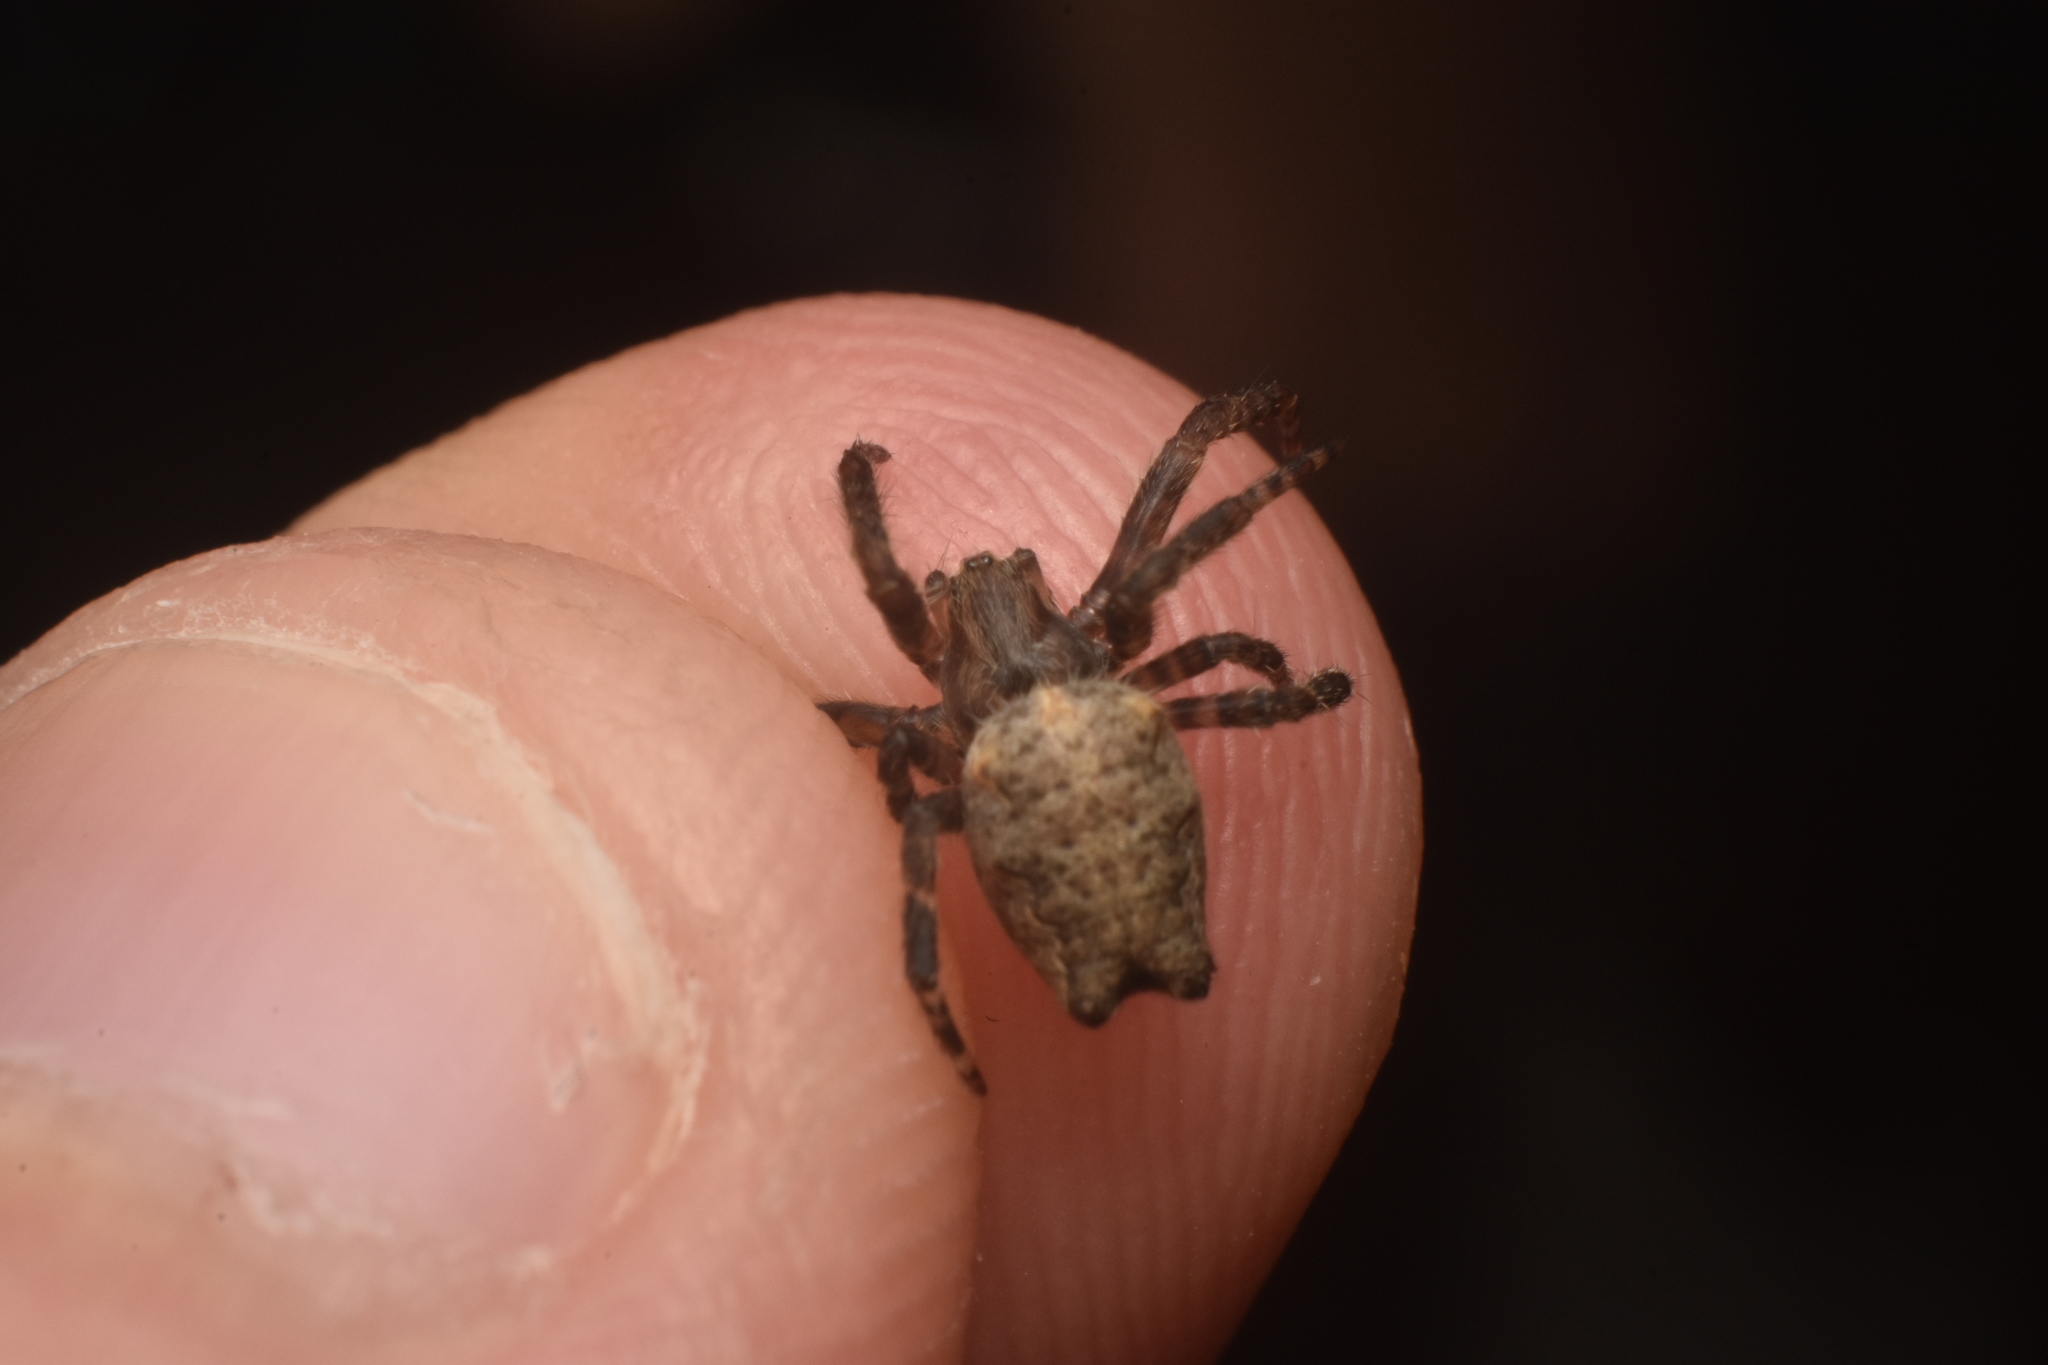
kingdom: Animalia
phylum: Arthropoda
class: Arachnida
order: Araneae
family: Araneidae
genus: Cyrtophora
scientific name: Cyrtophora citricola
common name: Orb weavers
